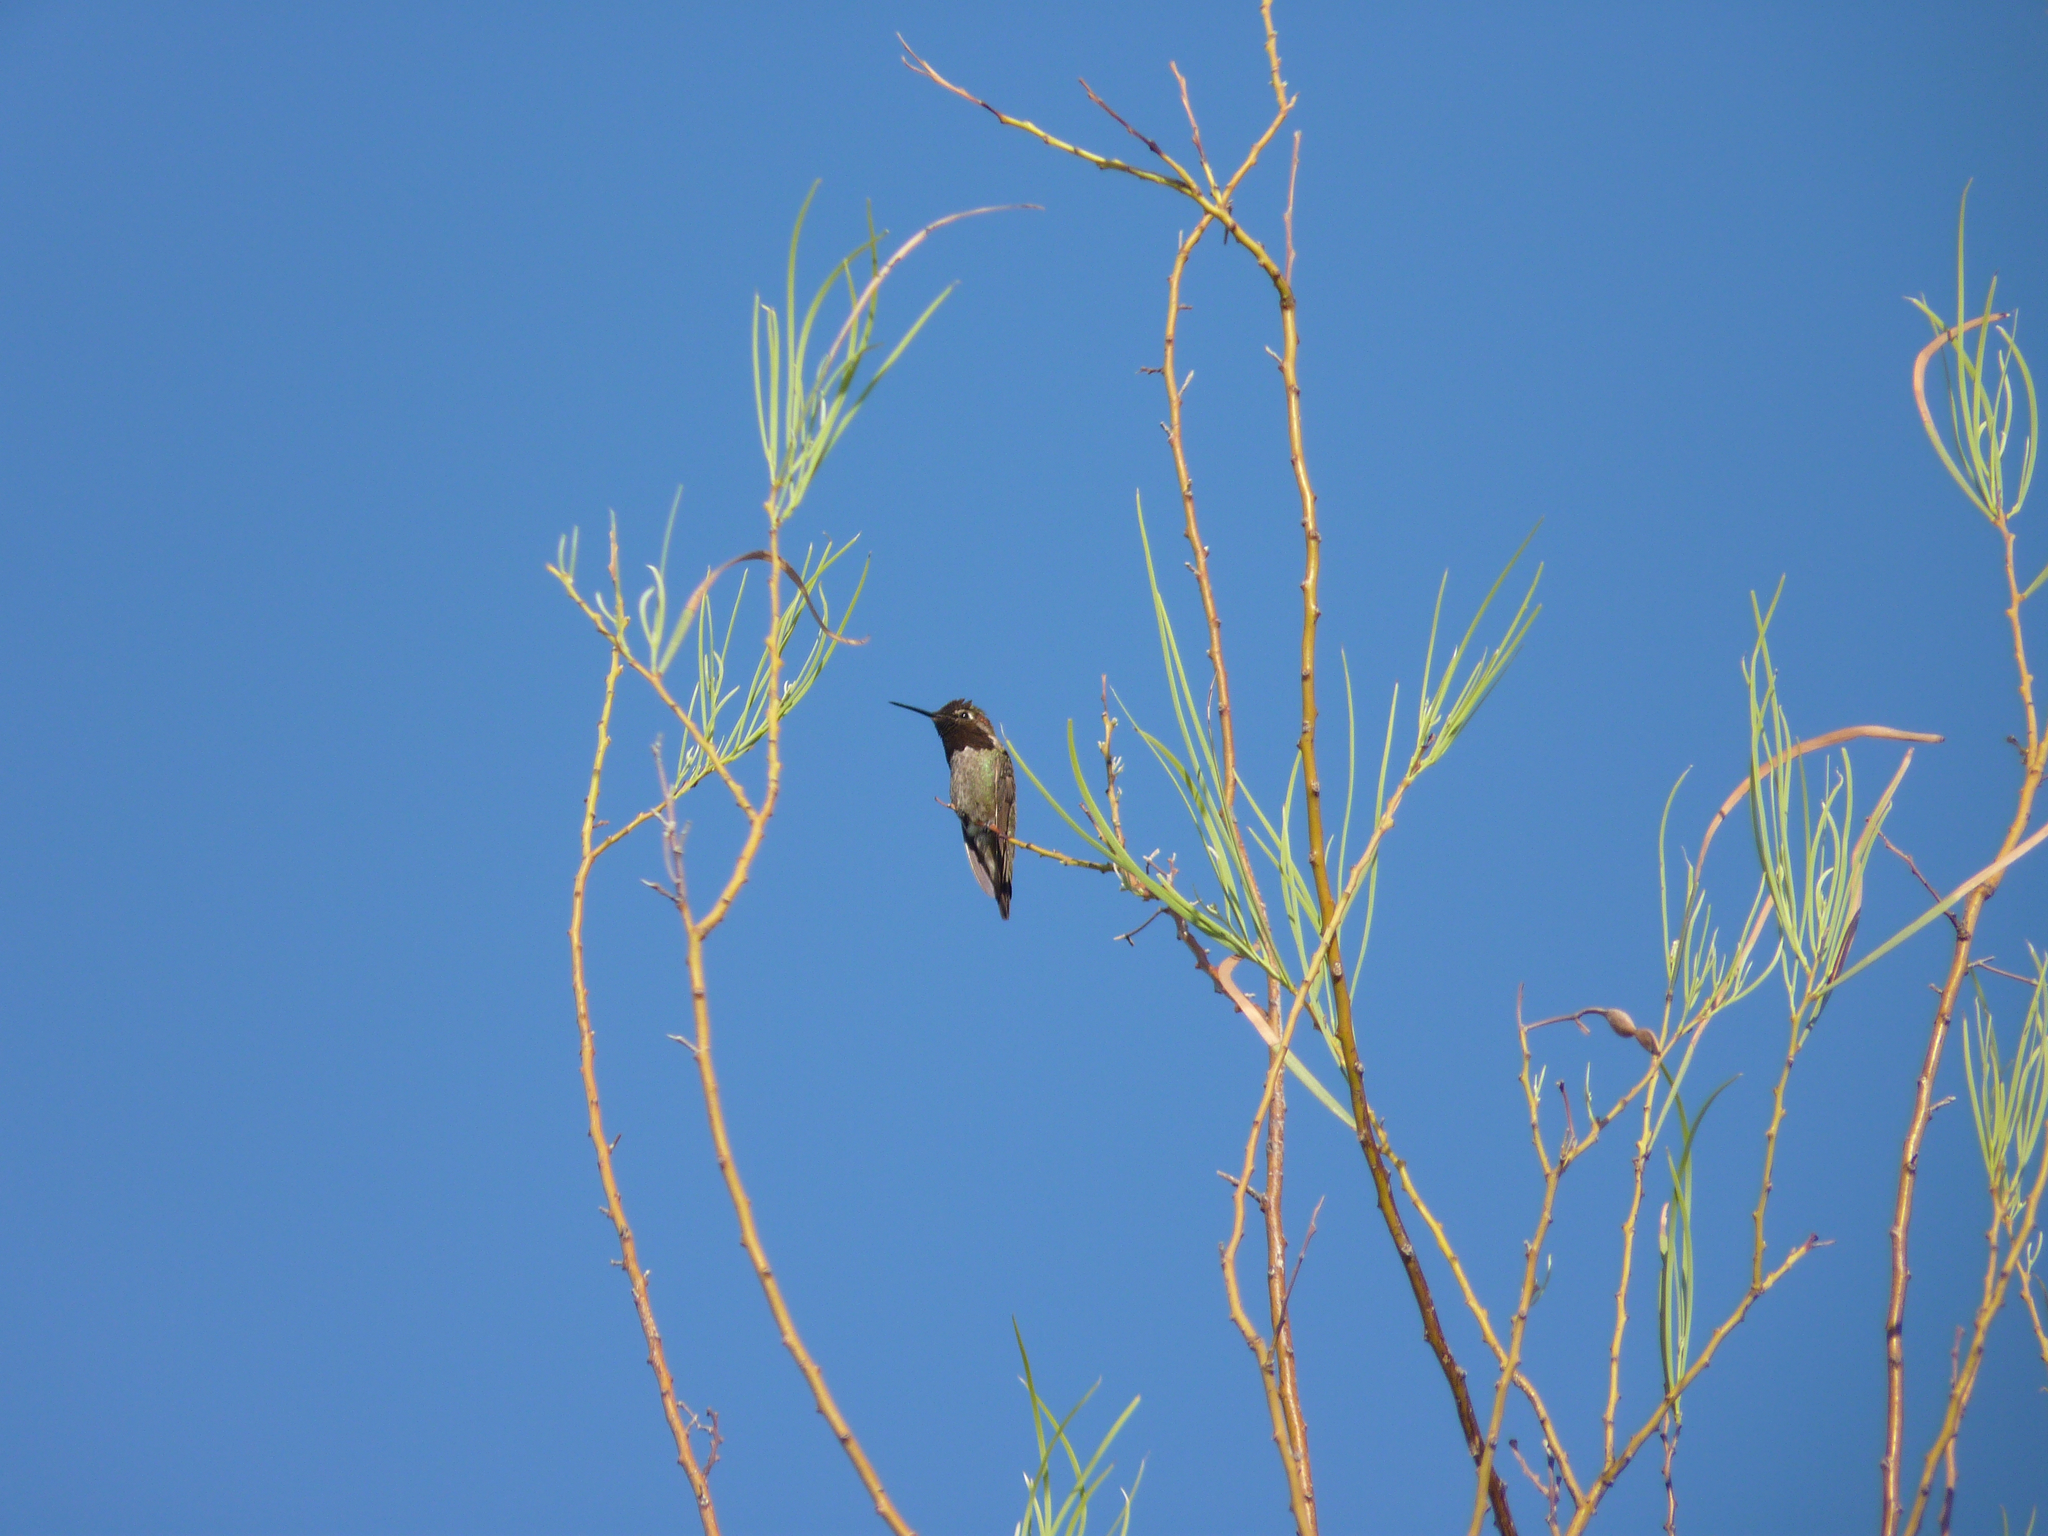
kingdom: Animalia
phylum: Chordata
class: Aves
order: Apodiformes
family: Trochilidae
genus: Calypte
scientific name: Calypte anna
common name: Anna's hummingbird
